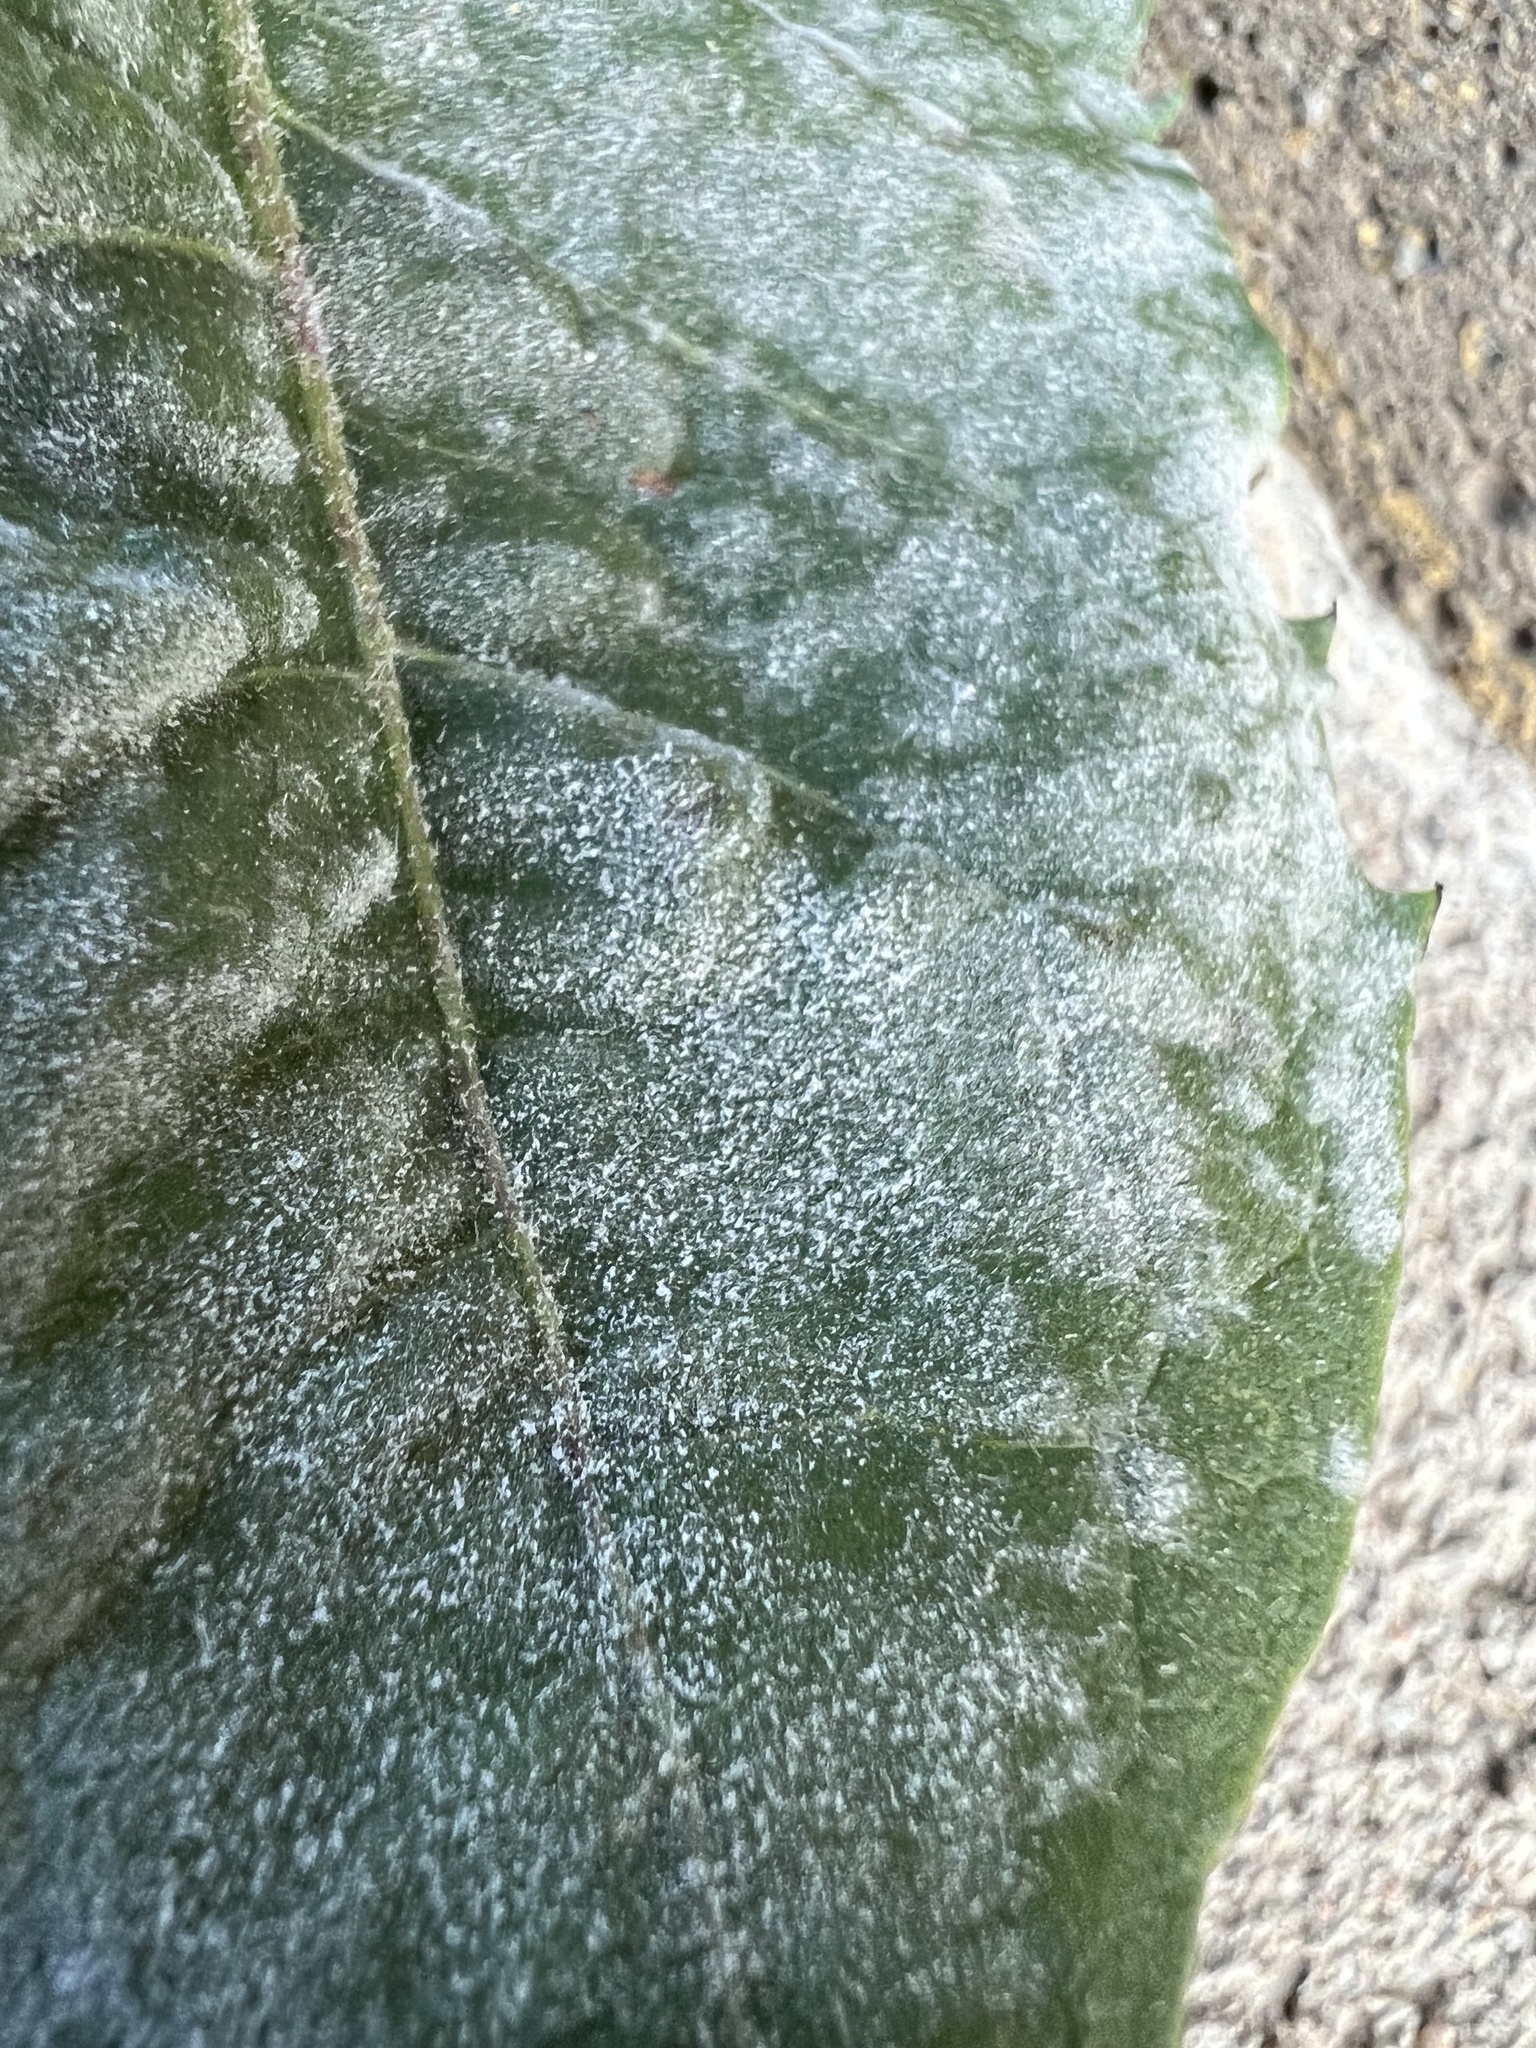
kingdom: Fungi
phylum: Ascomycota
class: Leotiomycetes
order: Helotiales
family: Erysiphaceae
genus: Podosphaera
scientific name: Podosphaera erigerontis-canadensis
